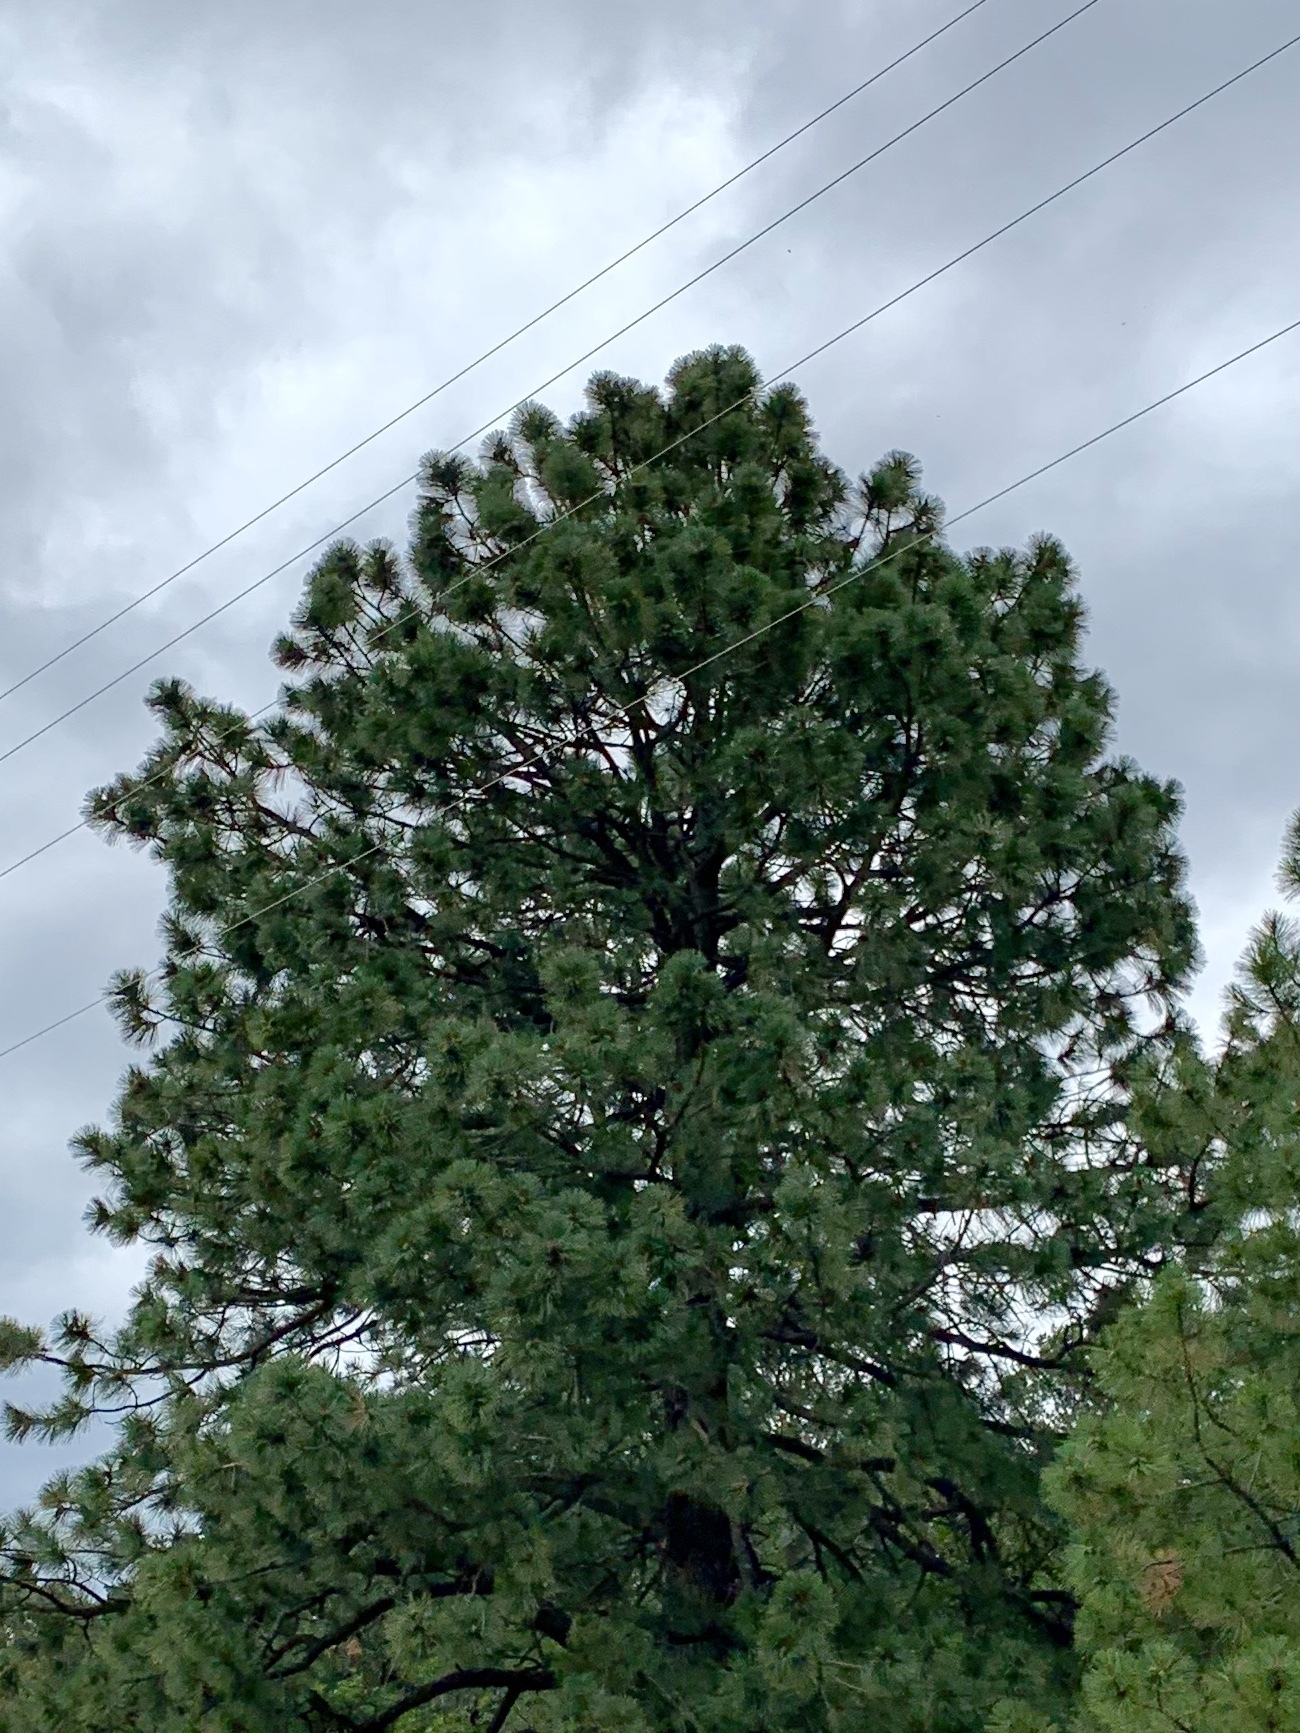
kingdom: Plantae
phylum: Tracheophyta
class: Pinopsida
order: Pinales
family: Pinaceae
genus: Pinus
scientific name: Pinus ponderosa
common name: Western yellow-pine
